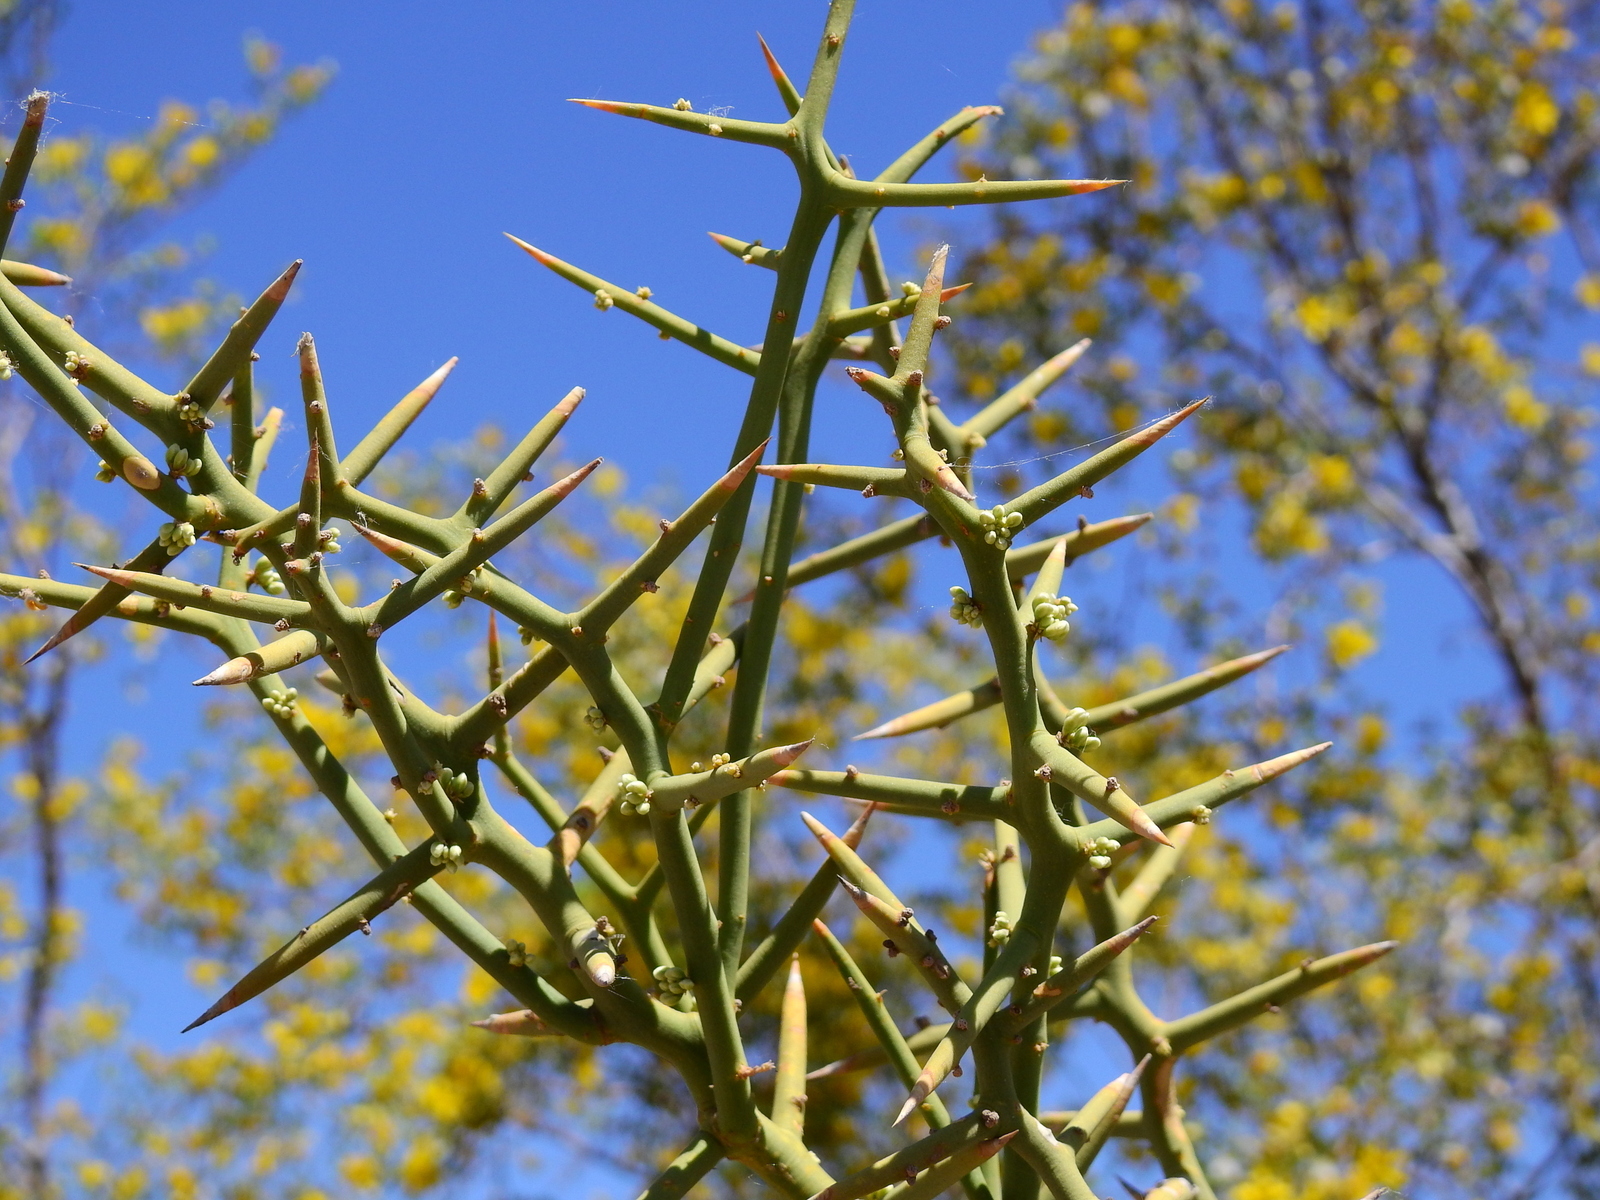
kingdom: Plantae
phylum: Tracheophyta
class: Magnoliopsida
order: Fabales
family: Polygalaceae
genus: Bredemeyera
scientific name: Bredemeyera colletioides
